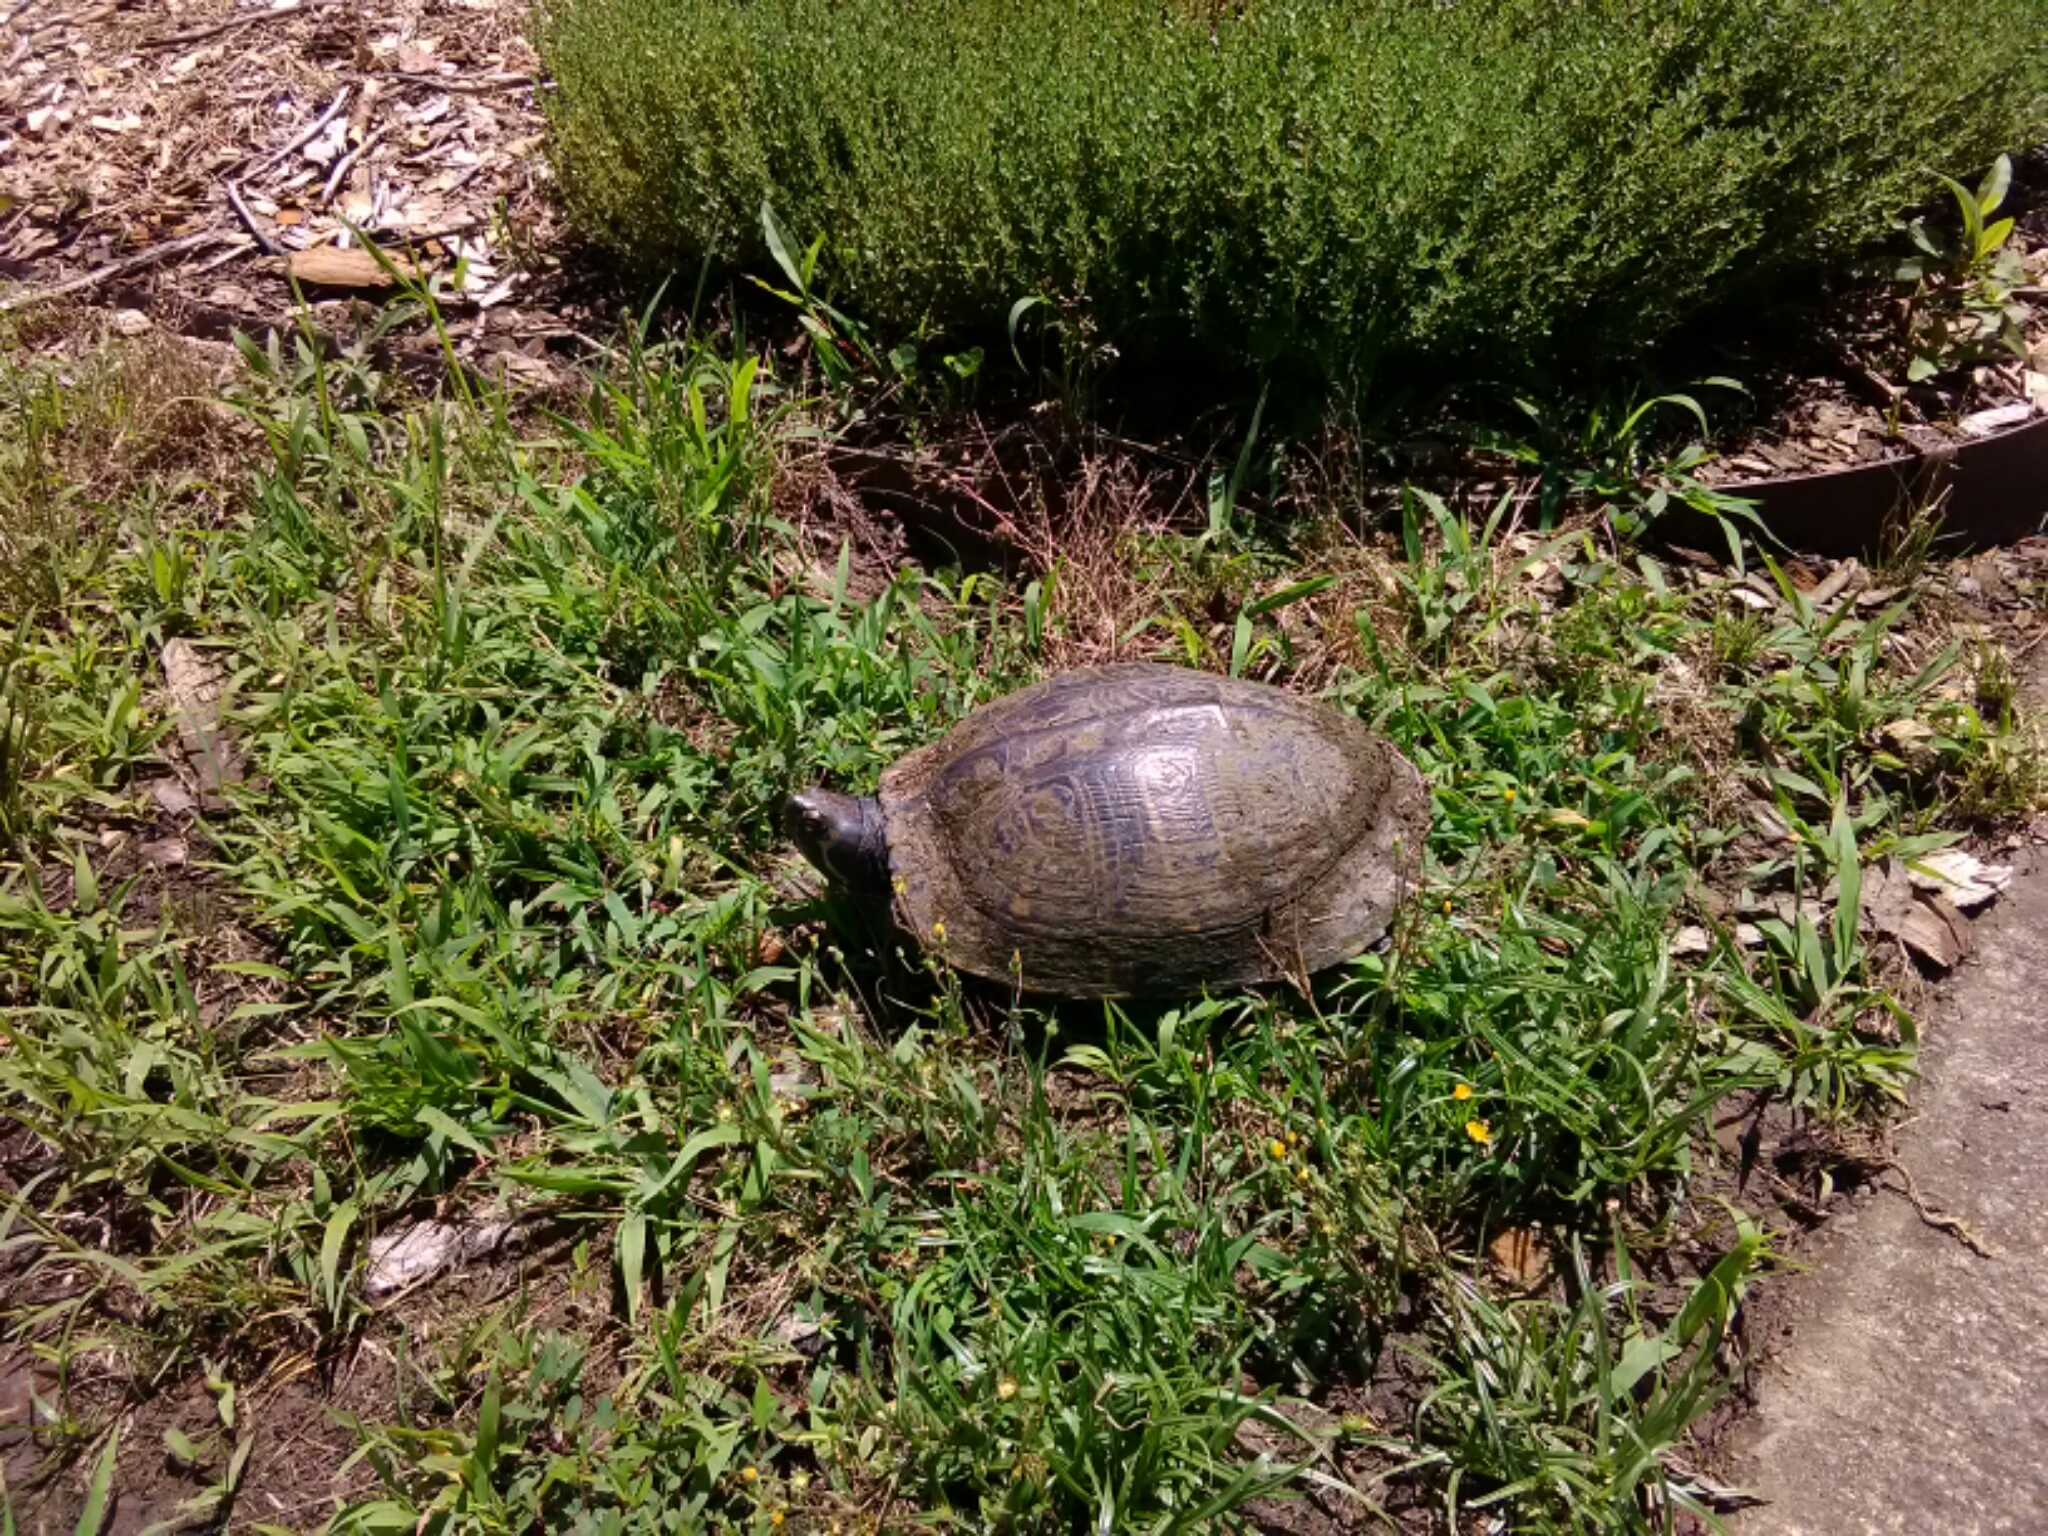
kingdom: Animalia
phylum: Chordata
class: Testudines
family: Emydidae
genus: Trachemys
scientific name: Trachemys scripta
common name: Slider
